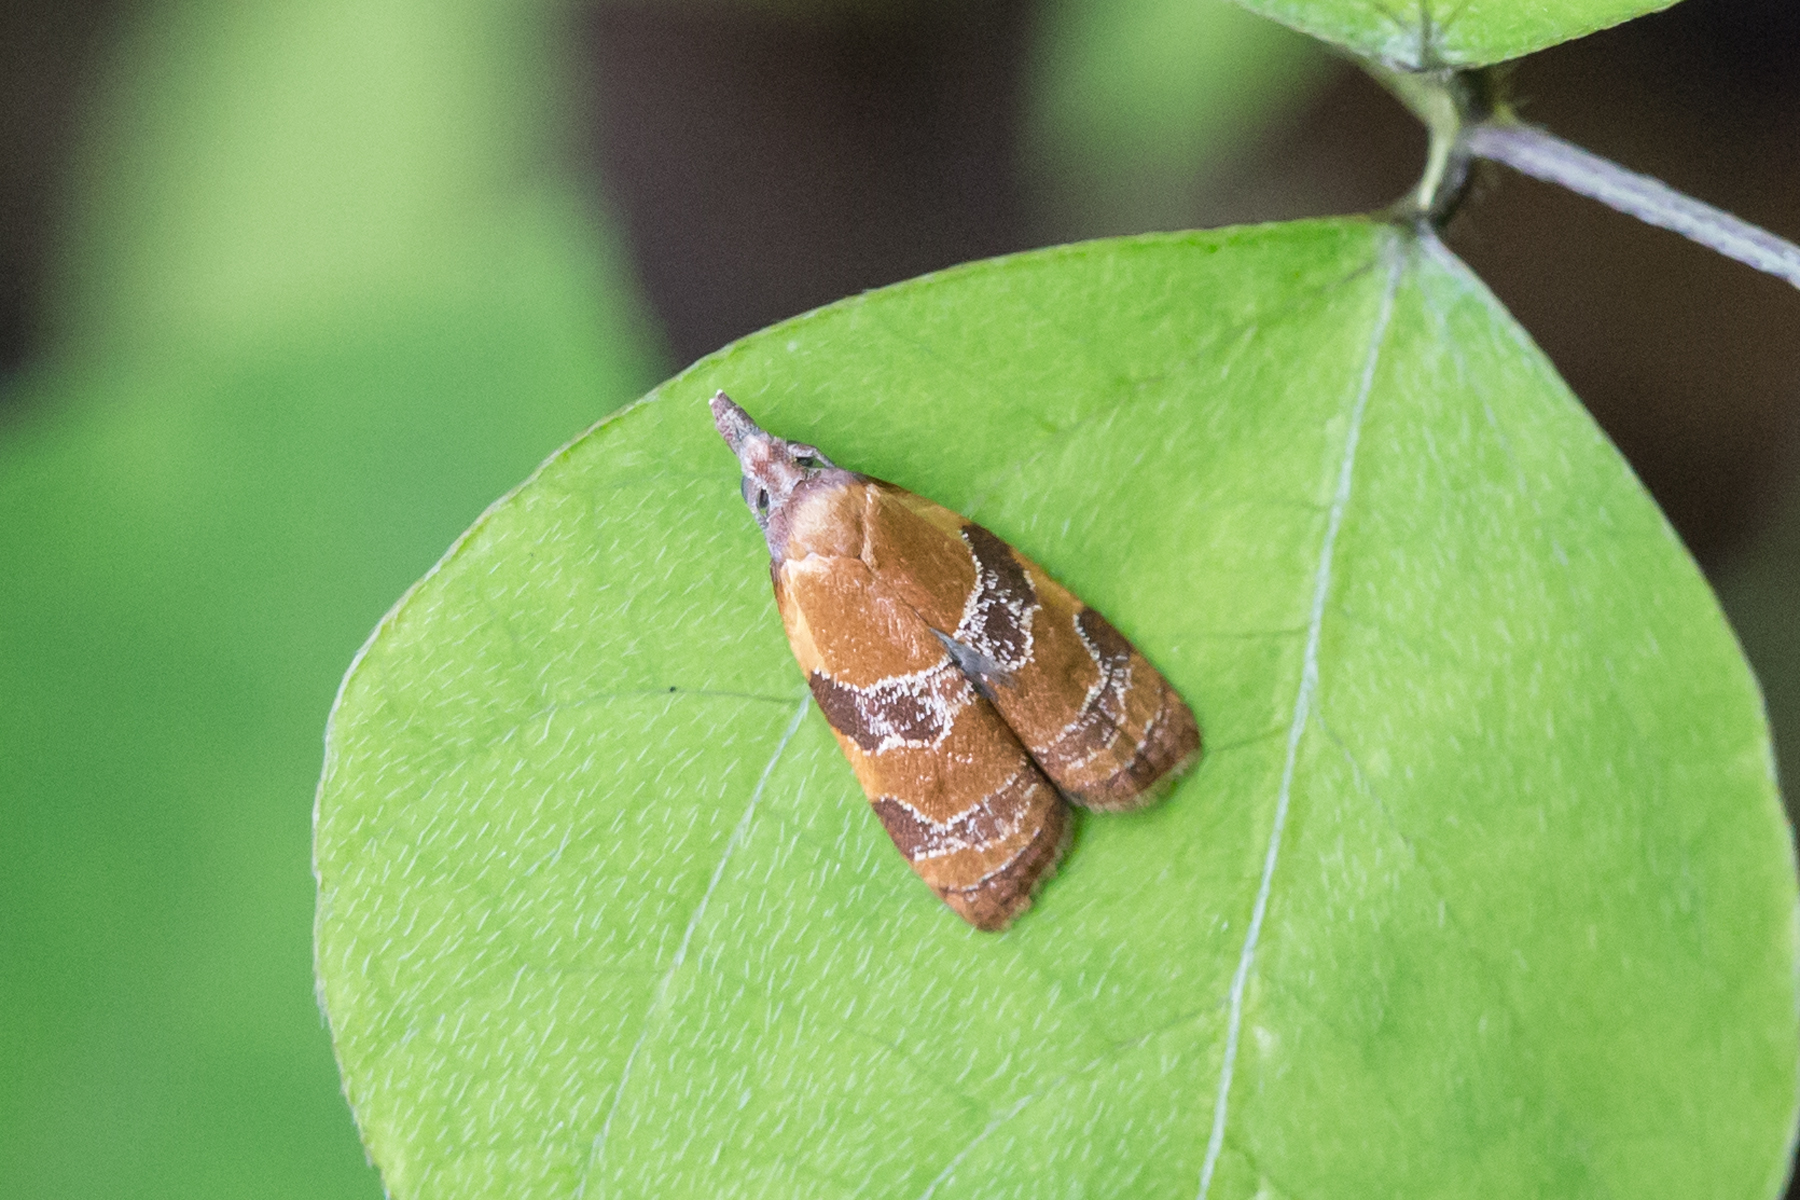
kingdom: Animalia
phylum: Arthropoda
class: Insecta
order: Lepidoptera
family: Tortricidae
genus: Cenopis
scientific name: Cenopis diluticostana
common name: Spring dead-leaf roller moth
